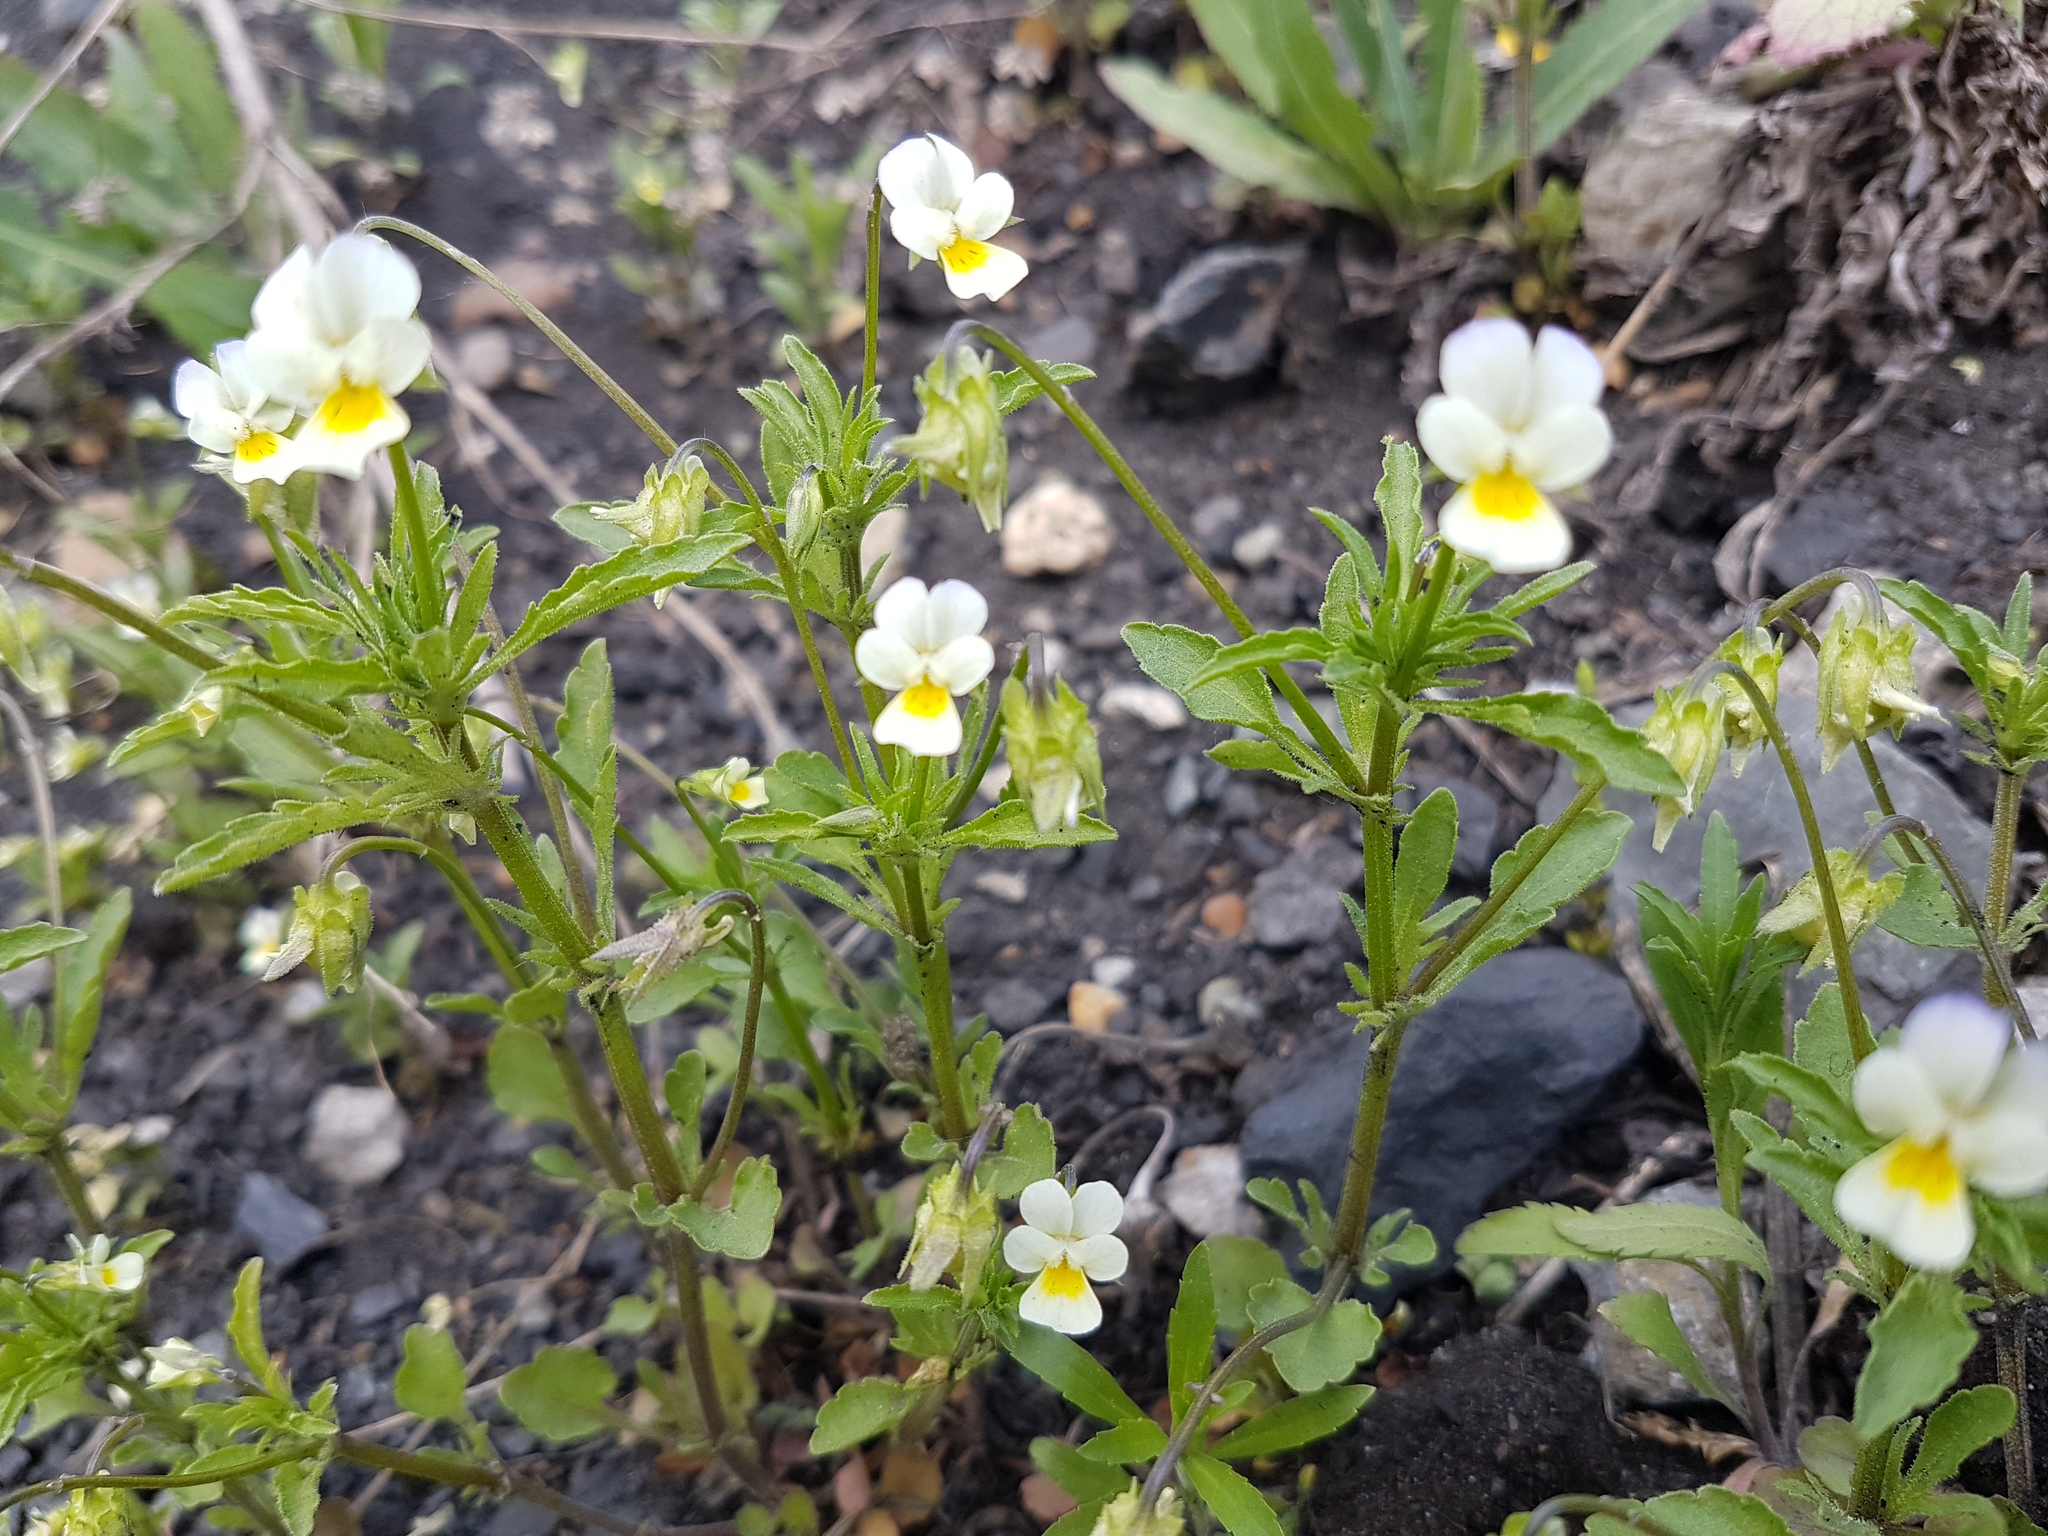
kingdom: Plantae
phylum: Tracheophyta
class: Magnoliopsida
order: Malpighiales
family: Violaceae
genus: Viola
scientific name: Viola arvensis
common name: Field pansy
